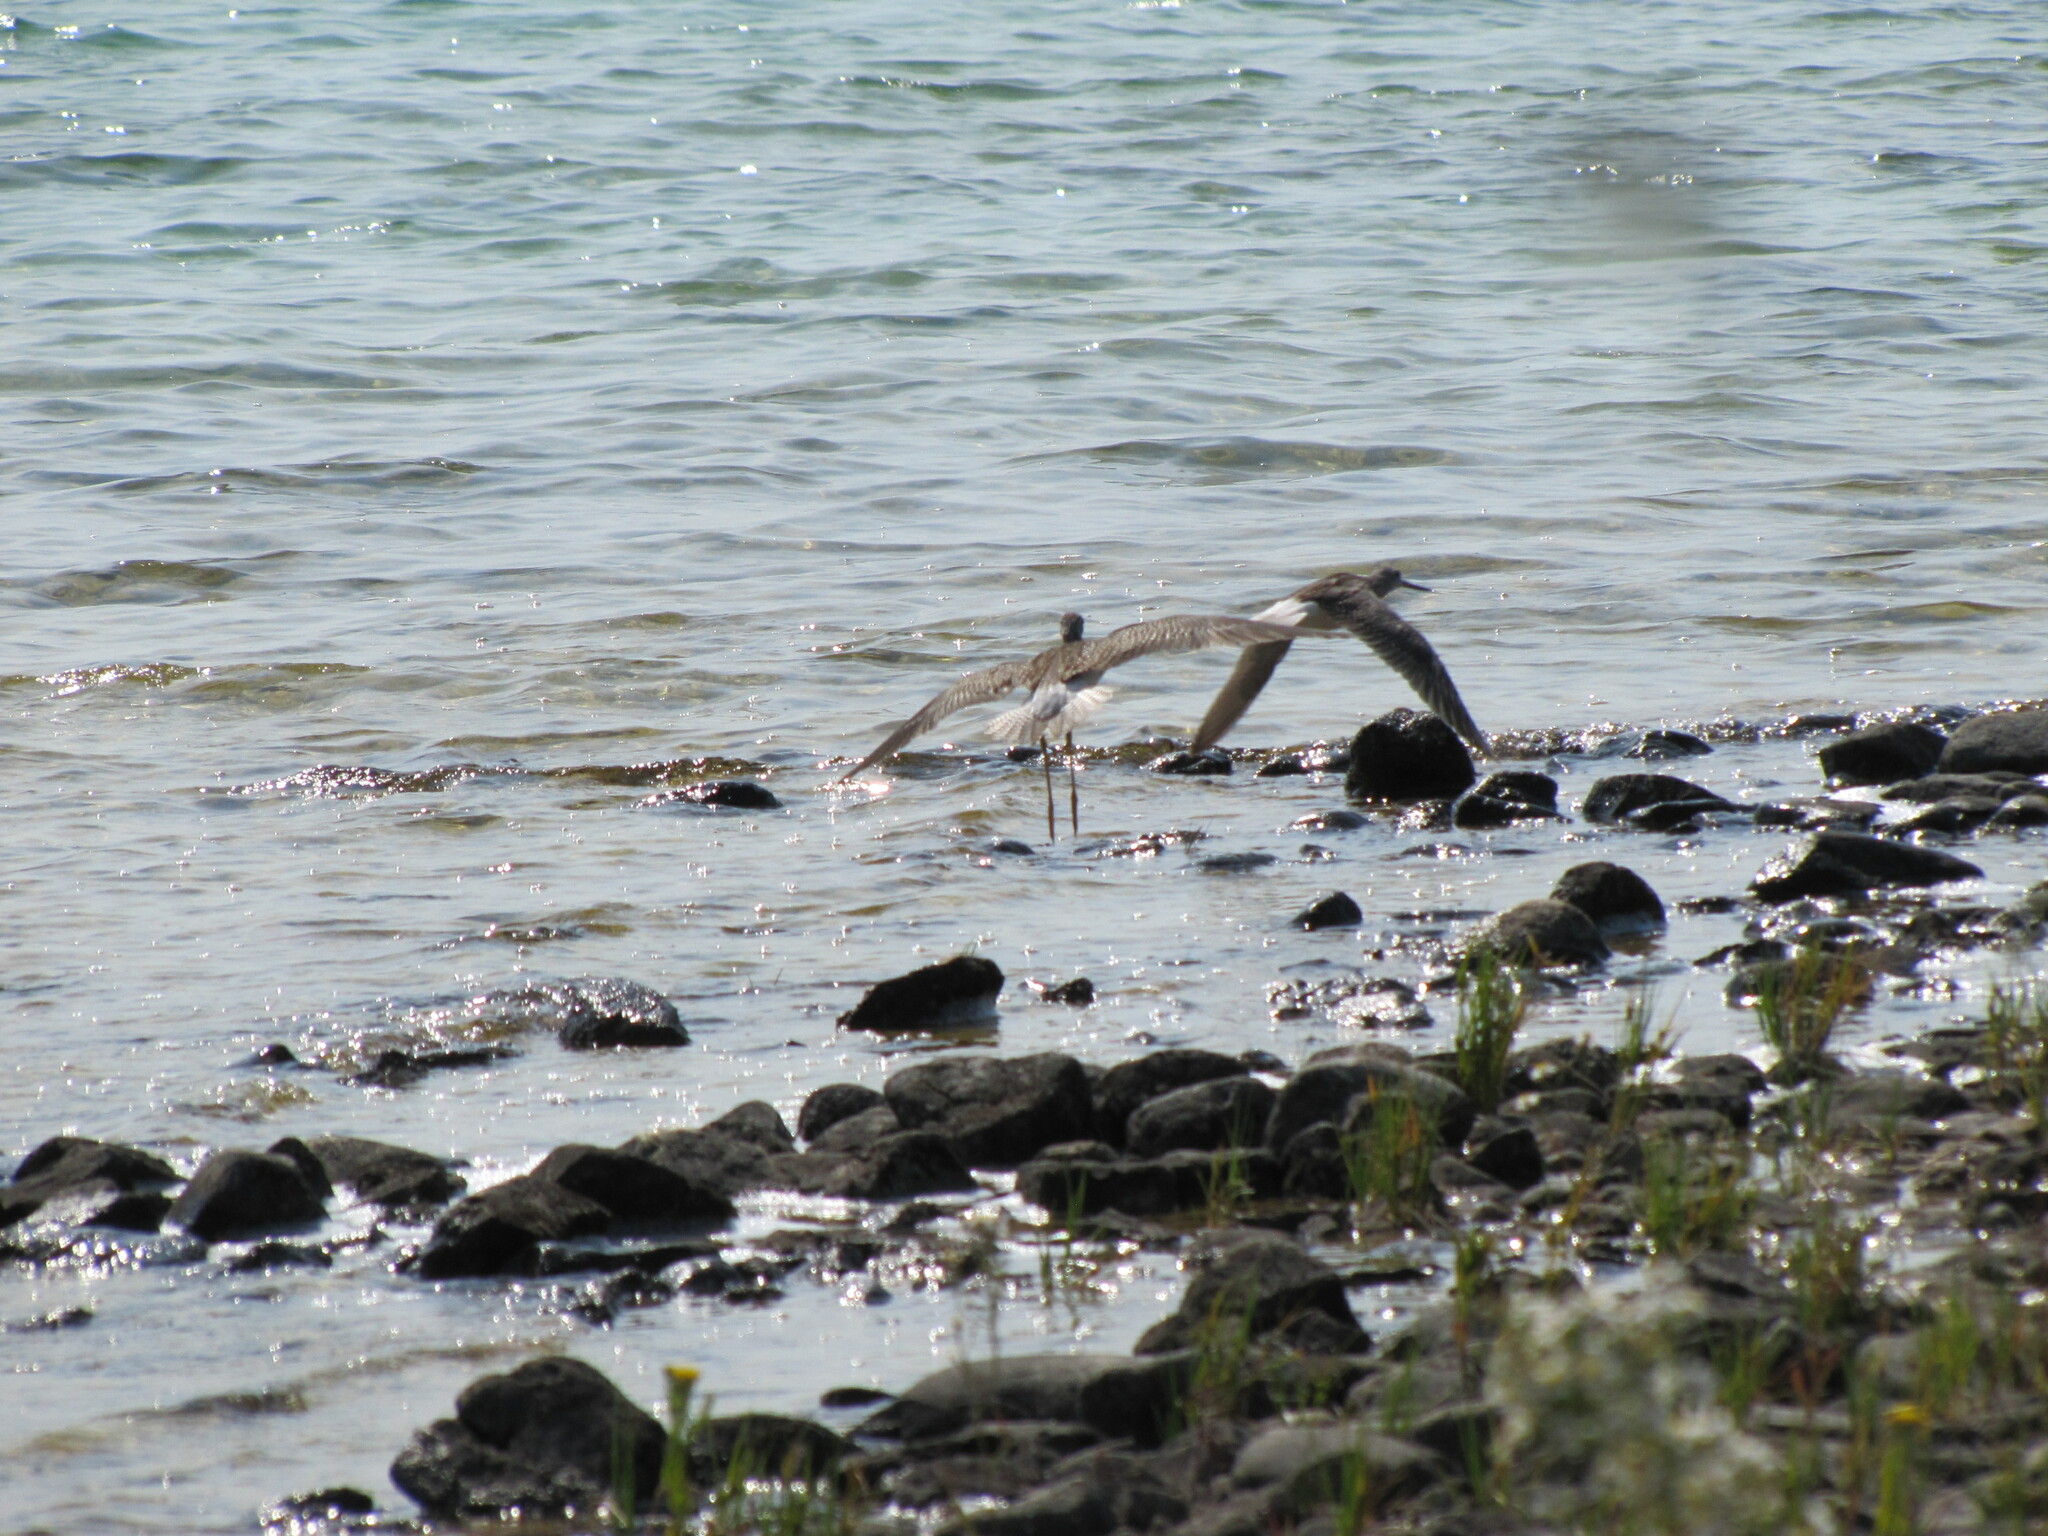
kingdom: Animalia
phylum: Chordata
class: Aves
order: Charadriiformes
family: Scolopacidae
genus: Tringa
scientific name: Tringa melanoleuca
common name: Greater yellowlegs
